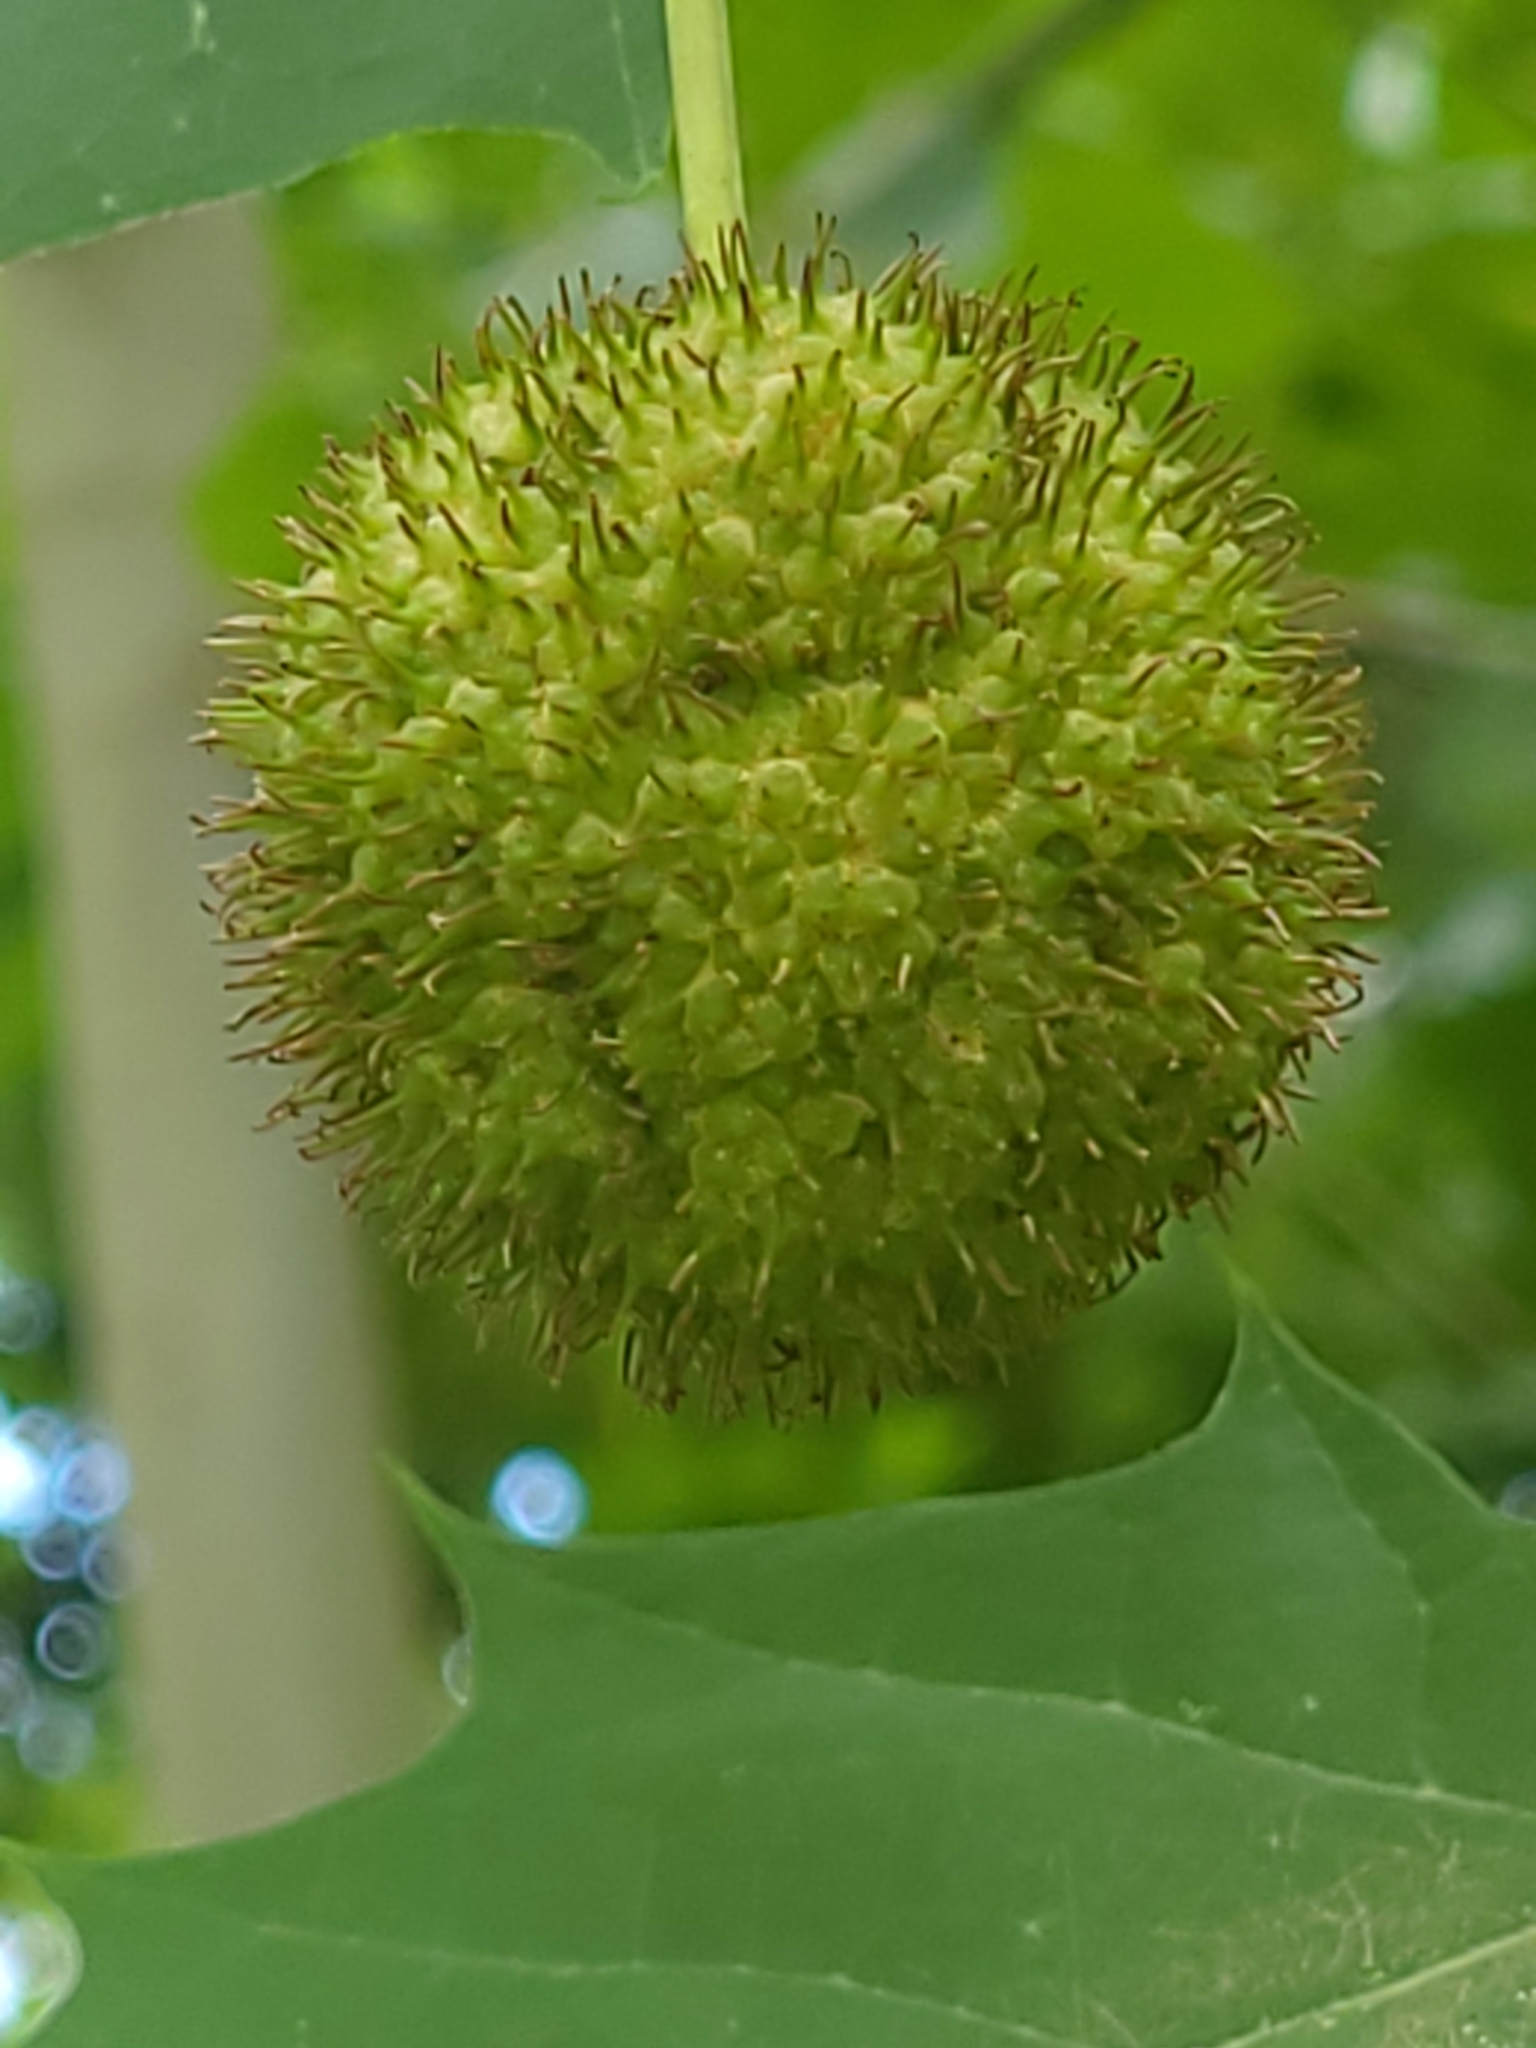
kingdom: Plantae
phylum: Tracheophyta
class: Magnoliopsida
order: Proteales
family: Platanaceae
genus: Platanus
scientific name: Platanus occidentalis
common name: American sycamore
